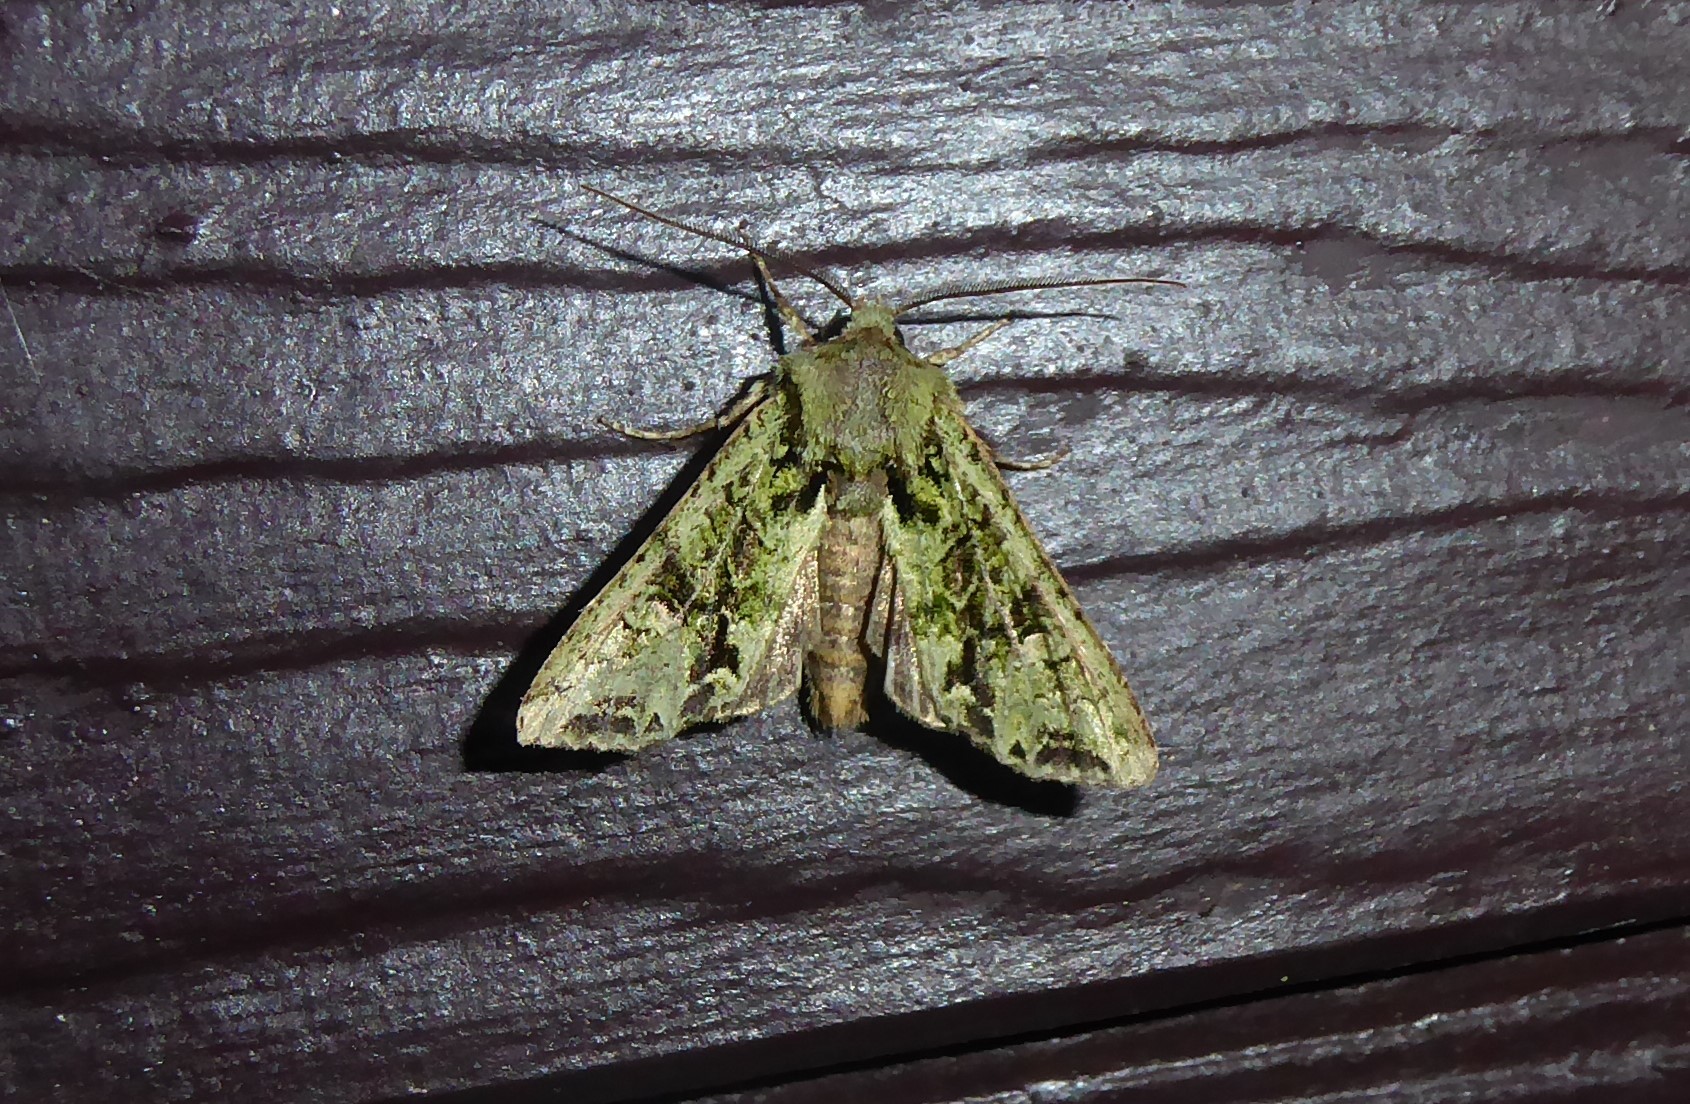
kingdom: Animalia
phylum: Arthropoda
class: Insecta
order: Lepidoptera
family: Noctuidae
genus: Ichneutica
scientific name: Ichneutica
